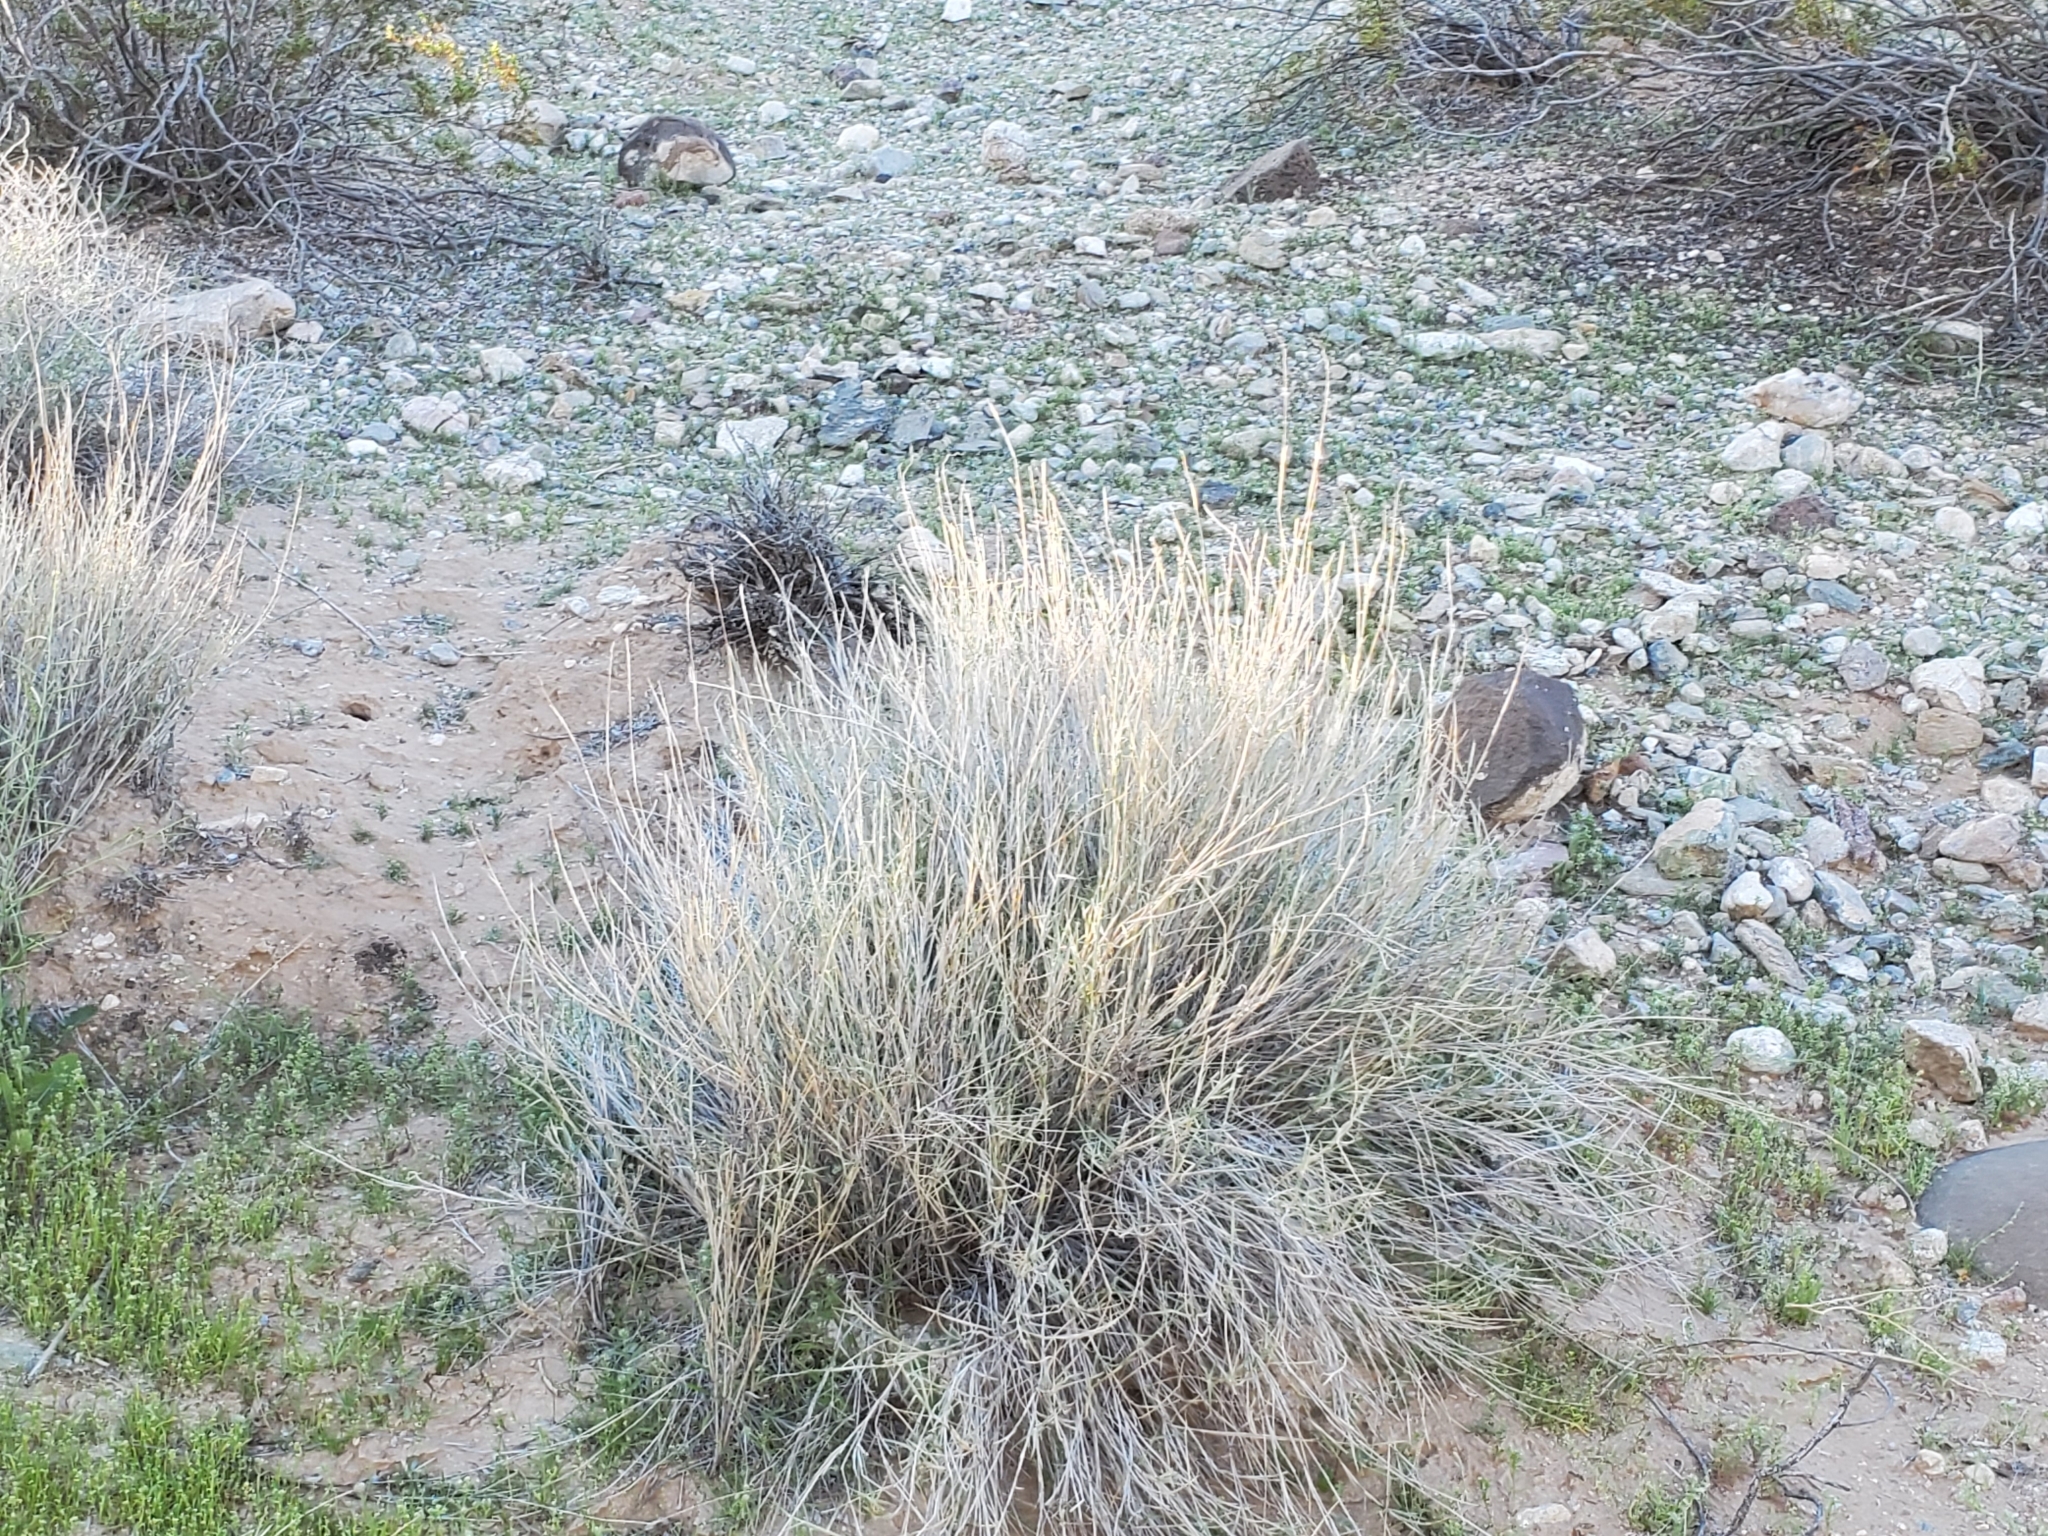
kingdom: Plantae
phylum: Tracheophyta
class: Liliopsida
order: Poales
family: Poaceae
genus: Hilaria
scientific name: Hilaria rigida
